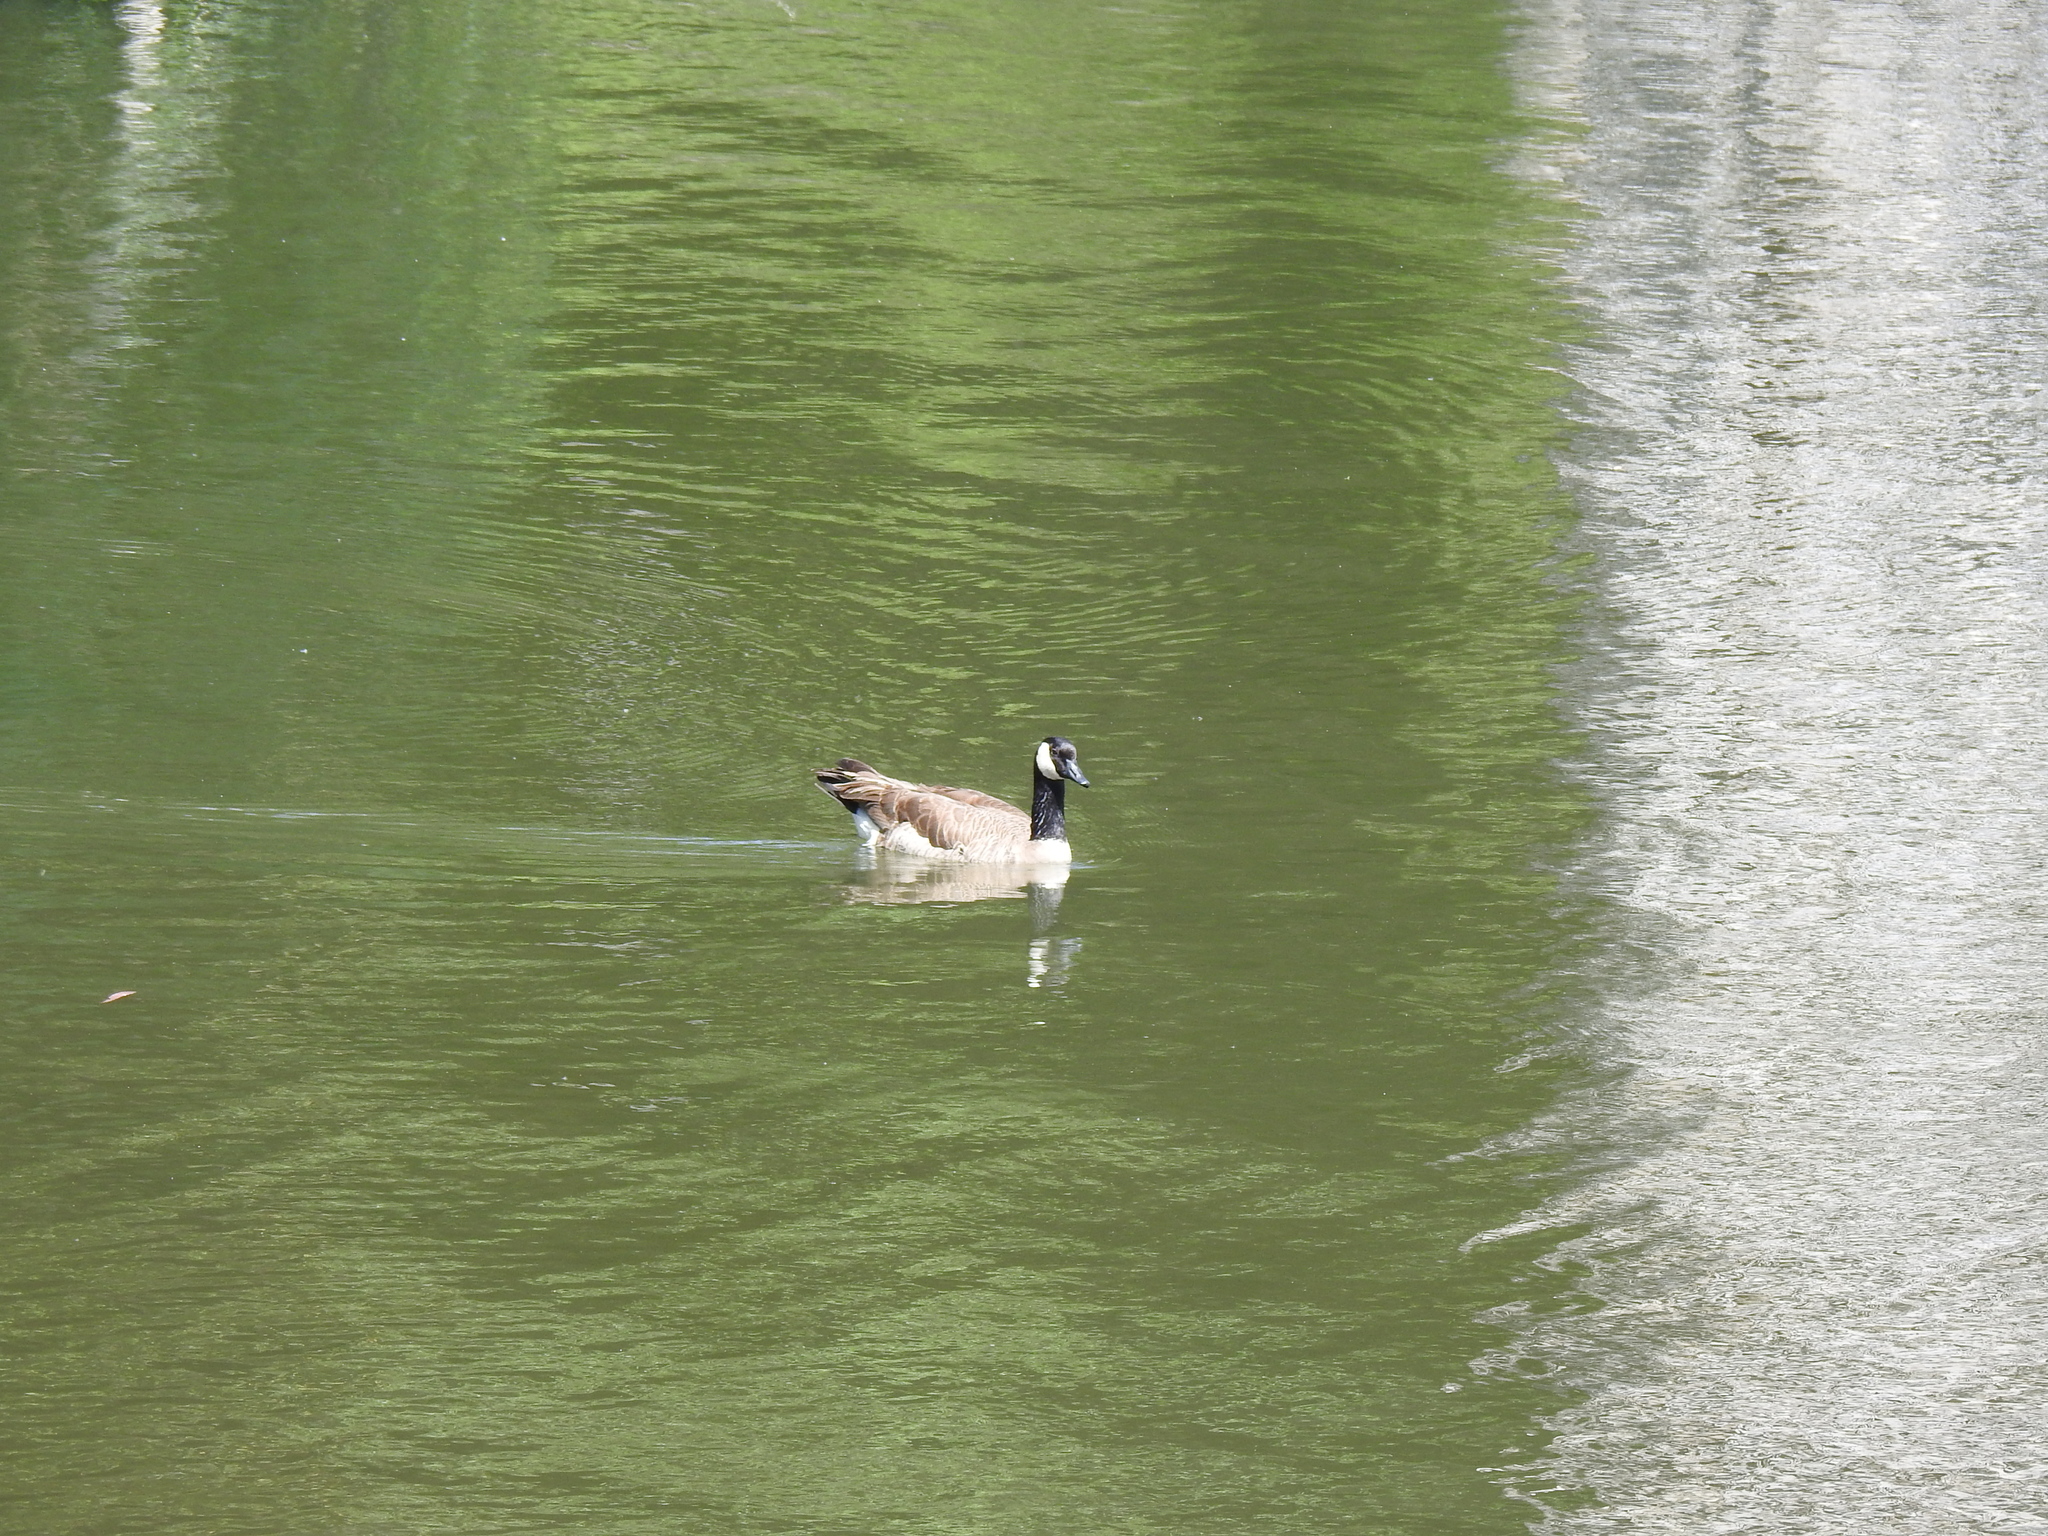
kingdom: Animalia
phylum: Chordata
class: Aves
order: Anseriformes
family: Anatidae
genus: Branta
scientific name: Branta canadensis
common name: Canada goose
